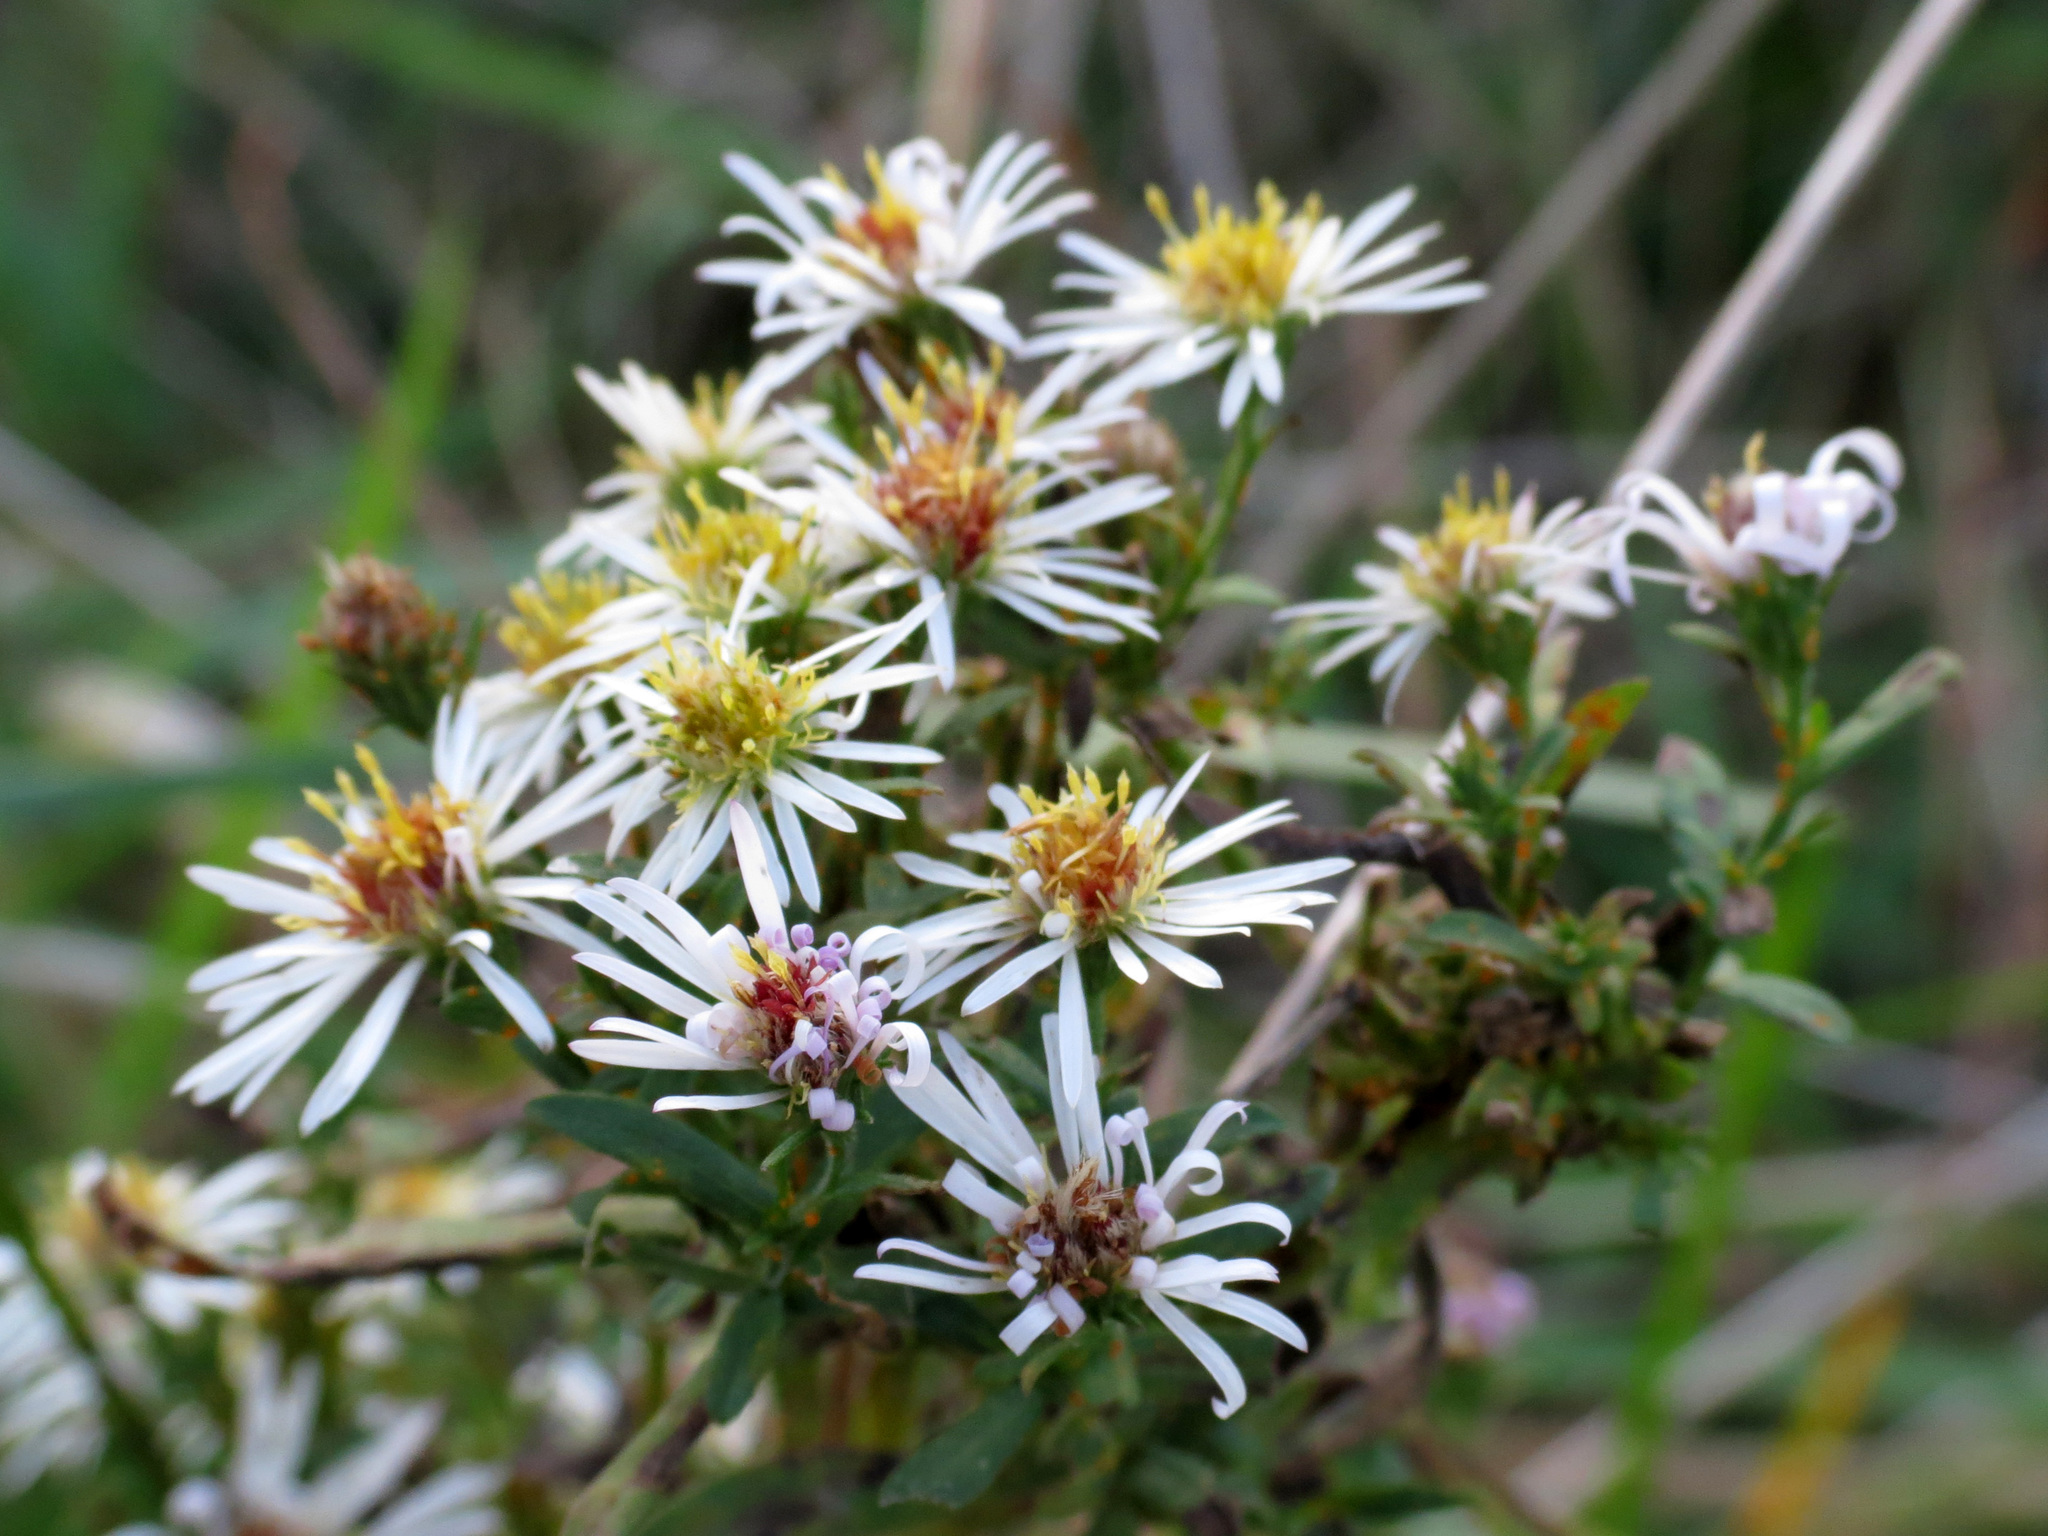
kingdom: Plantae
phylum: Tracheophyta
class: Magnoliopsida
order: Asterales
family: Asteraceae
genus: Symphyotrichum
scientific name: Symphyotrichum lanceolatum
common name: Panicled aster
